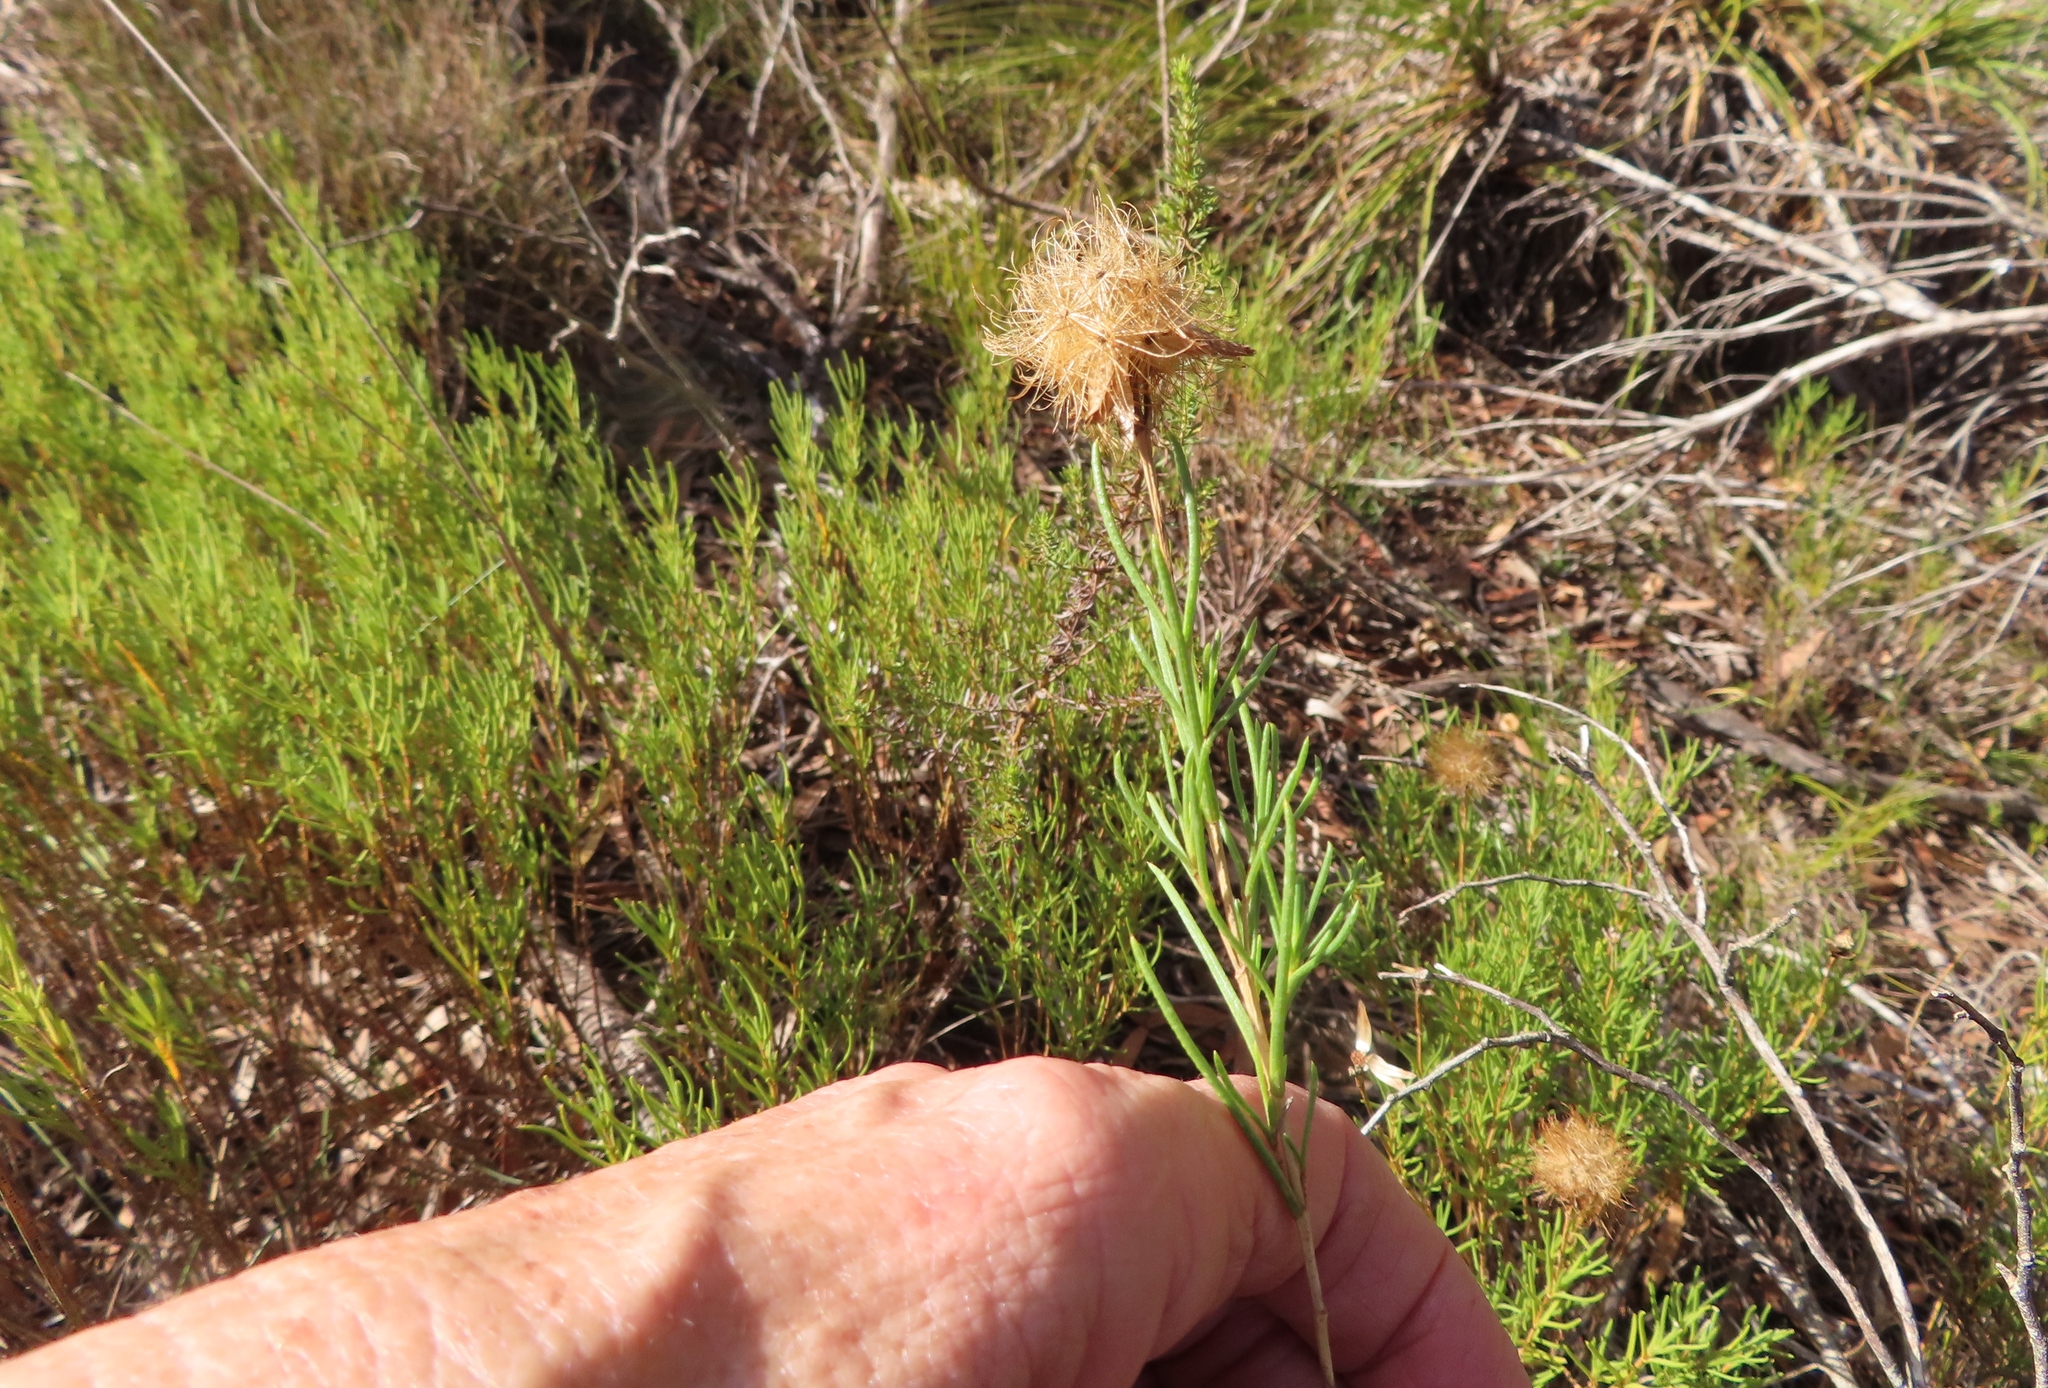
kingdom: Plantae
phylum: Tracheophyta
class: Magnoliopsida
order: Asterales
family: Asteraceae
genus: Pteronia
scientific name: Pteronia tenuifolia
